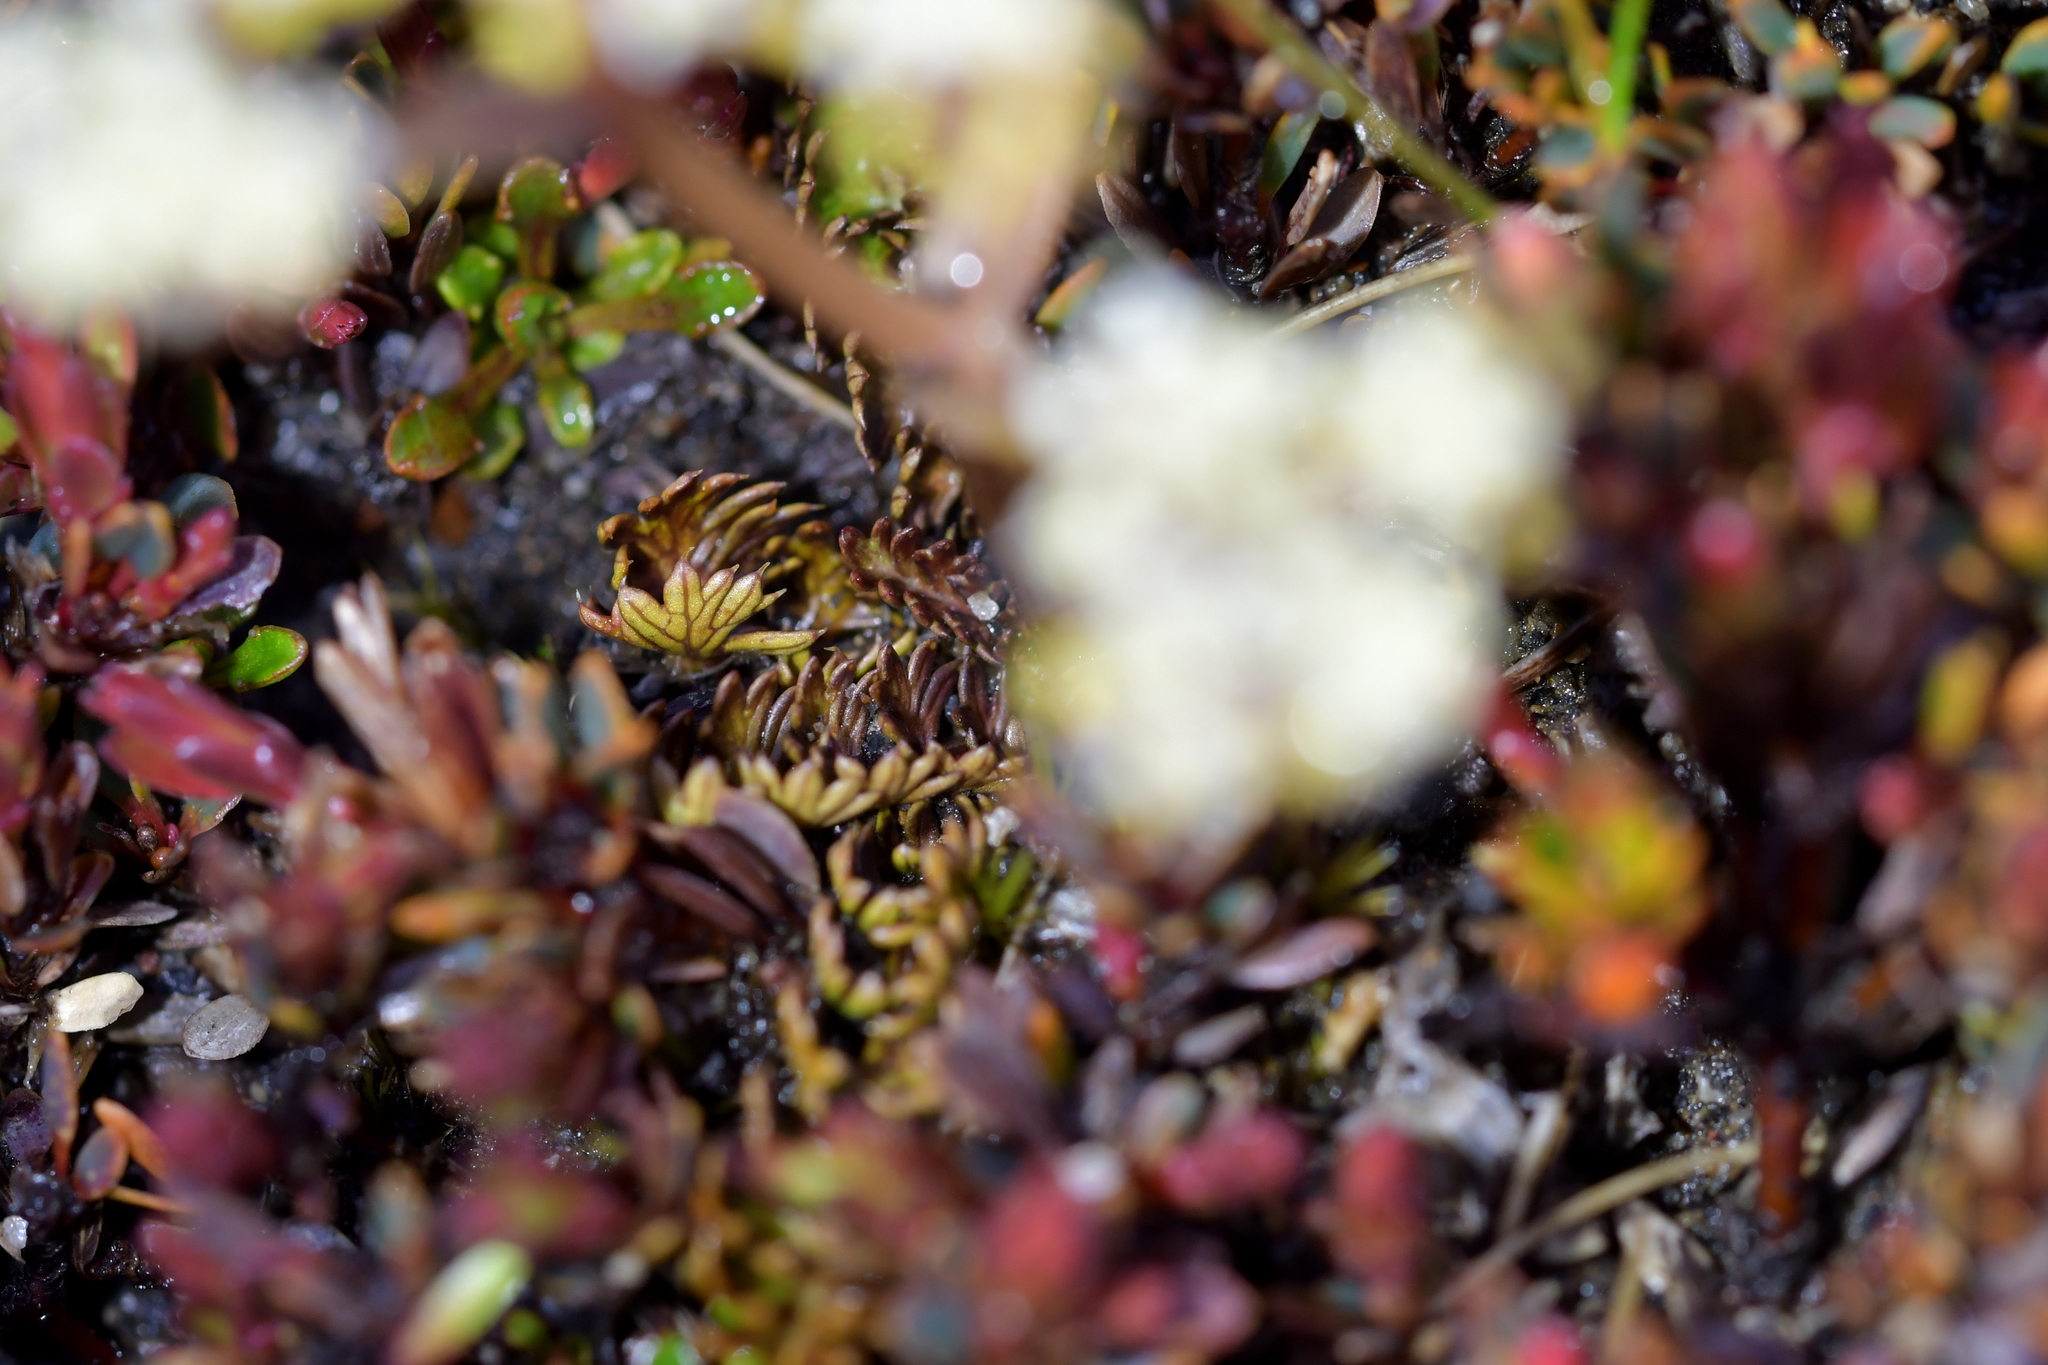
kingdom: Plantae
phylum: Tracheophyta
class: Magnoliopsida
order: Apiales
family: Apiaceae
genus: Anisotome
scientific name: Anisotome aromatica
